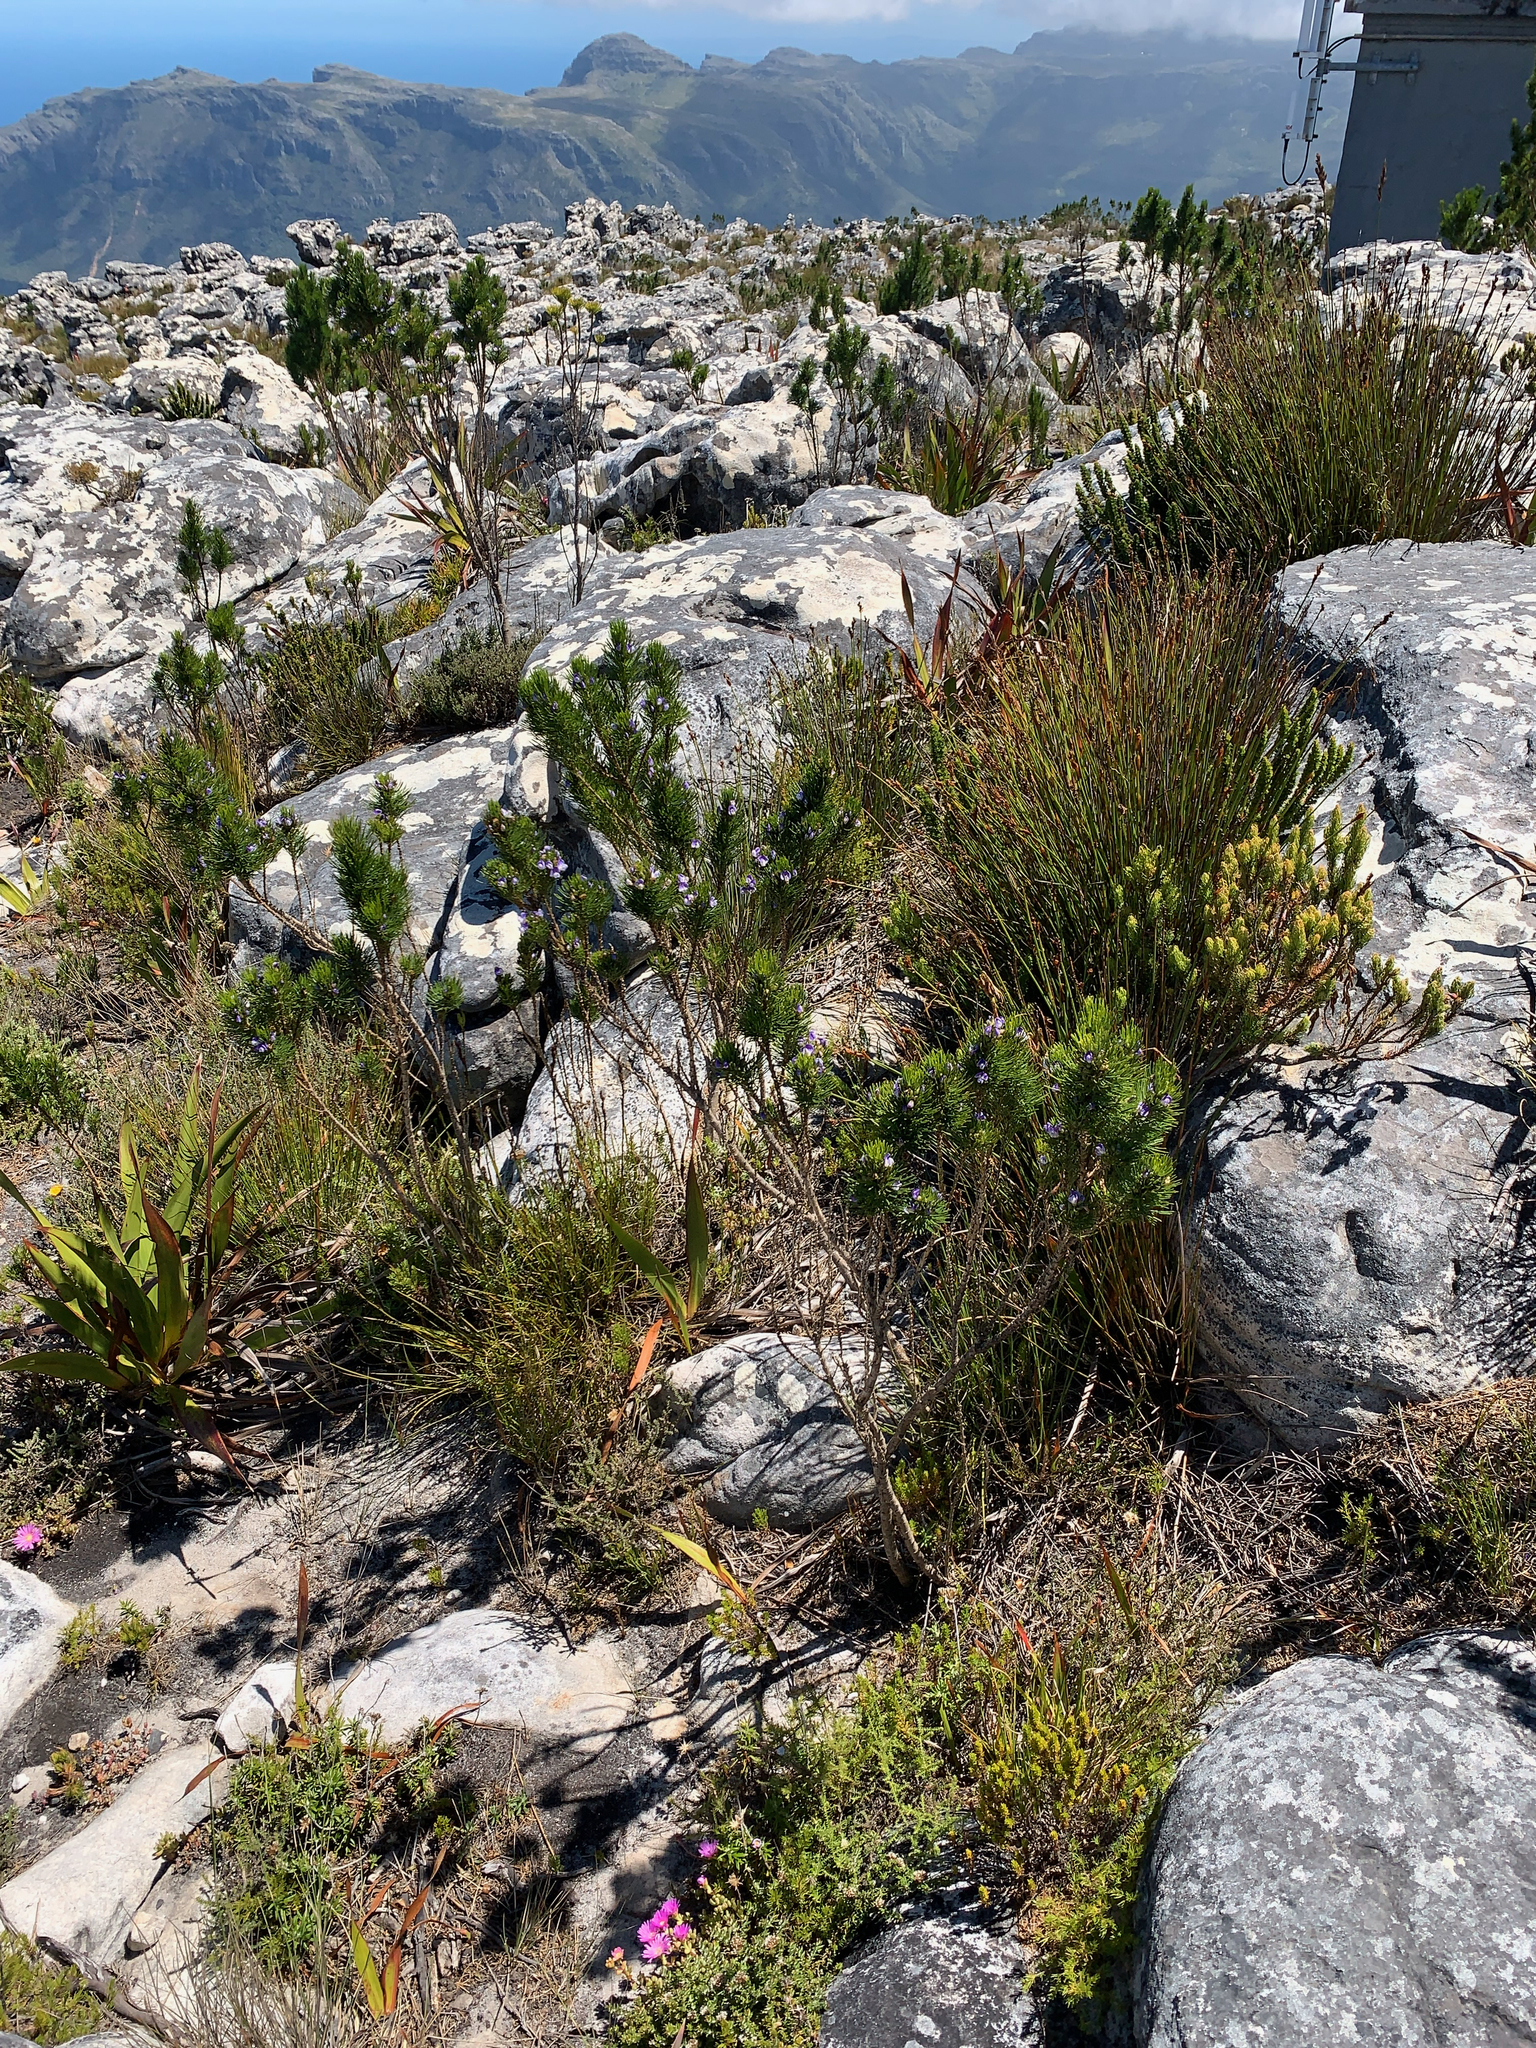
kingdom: Plantae
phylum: Tracheophyta
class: Magnoliopsida
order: Fabales
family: Fabaceae
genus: Psoralea
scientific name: Psoralea pinnata
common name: African scurfpea
